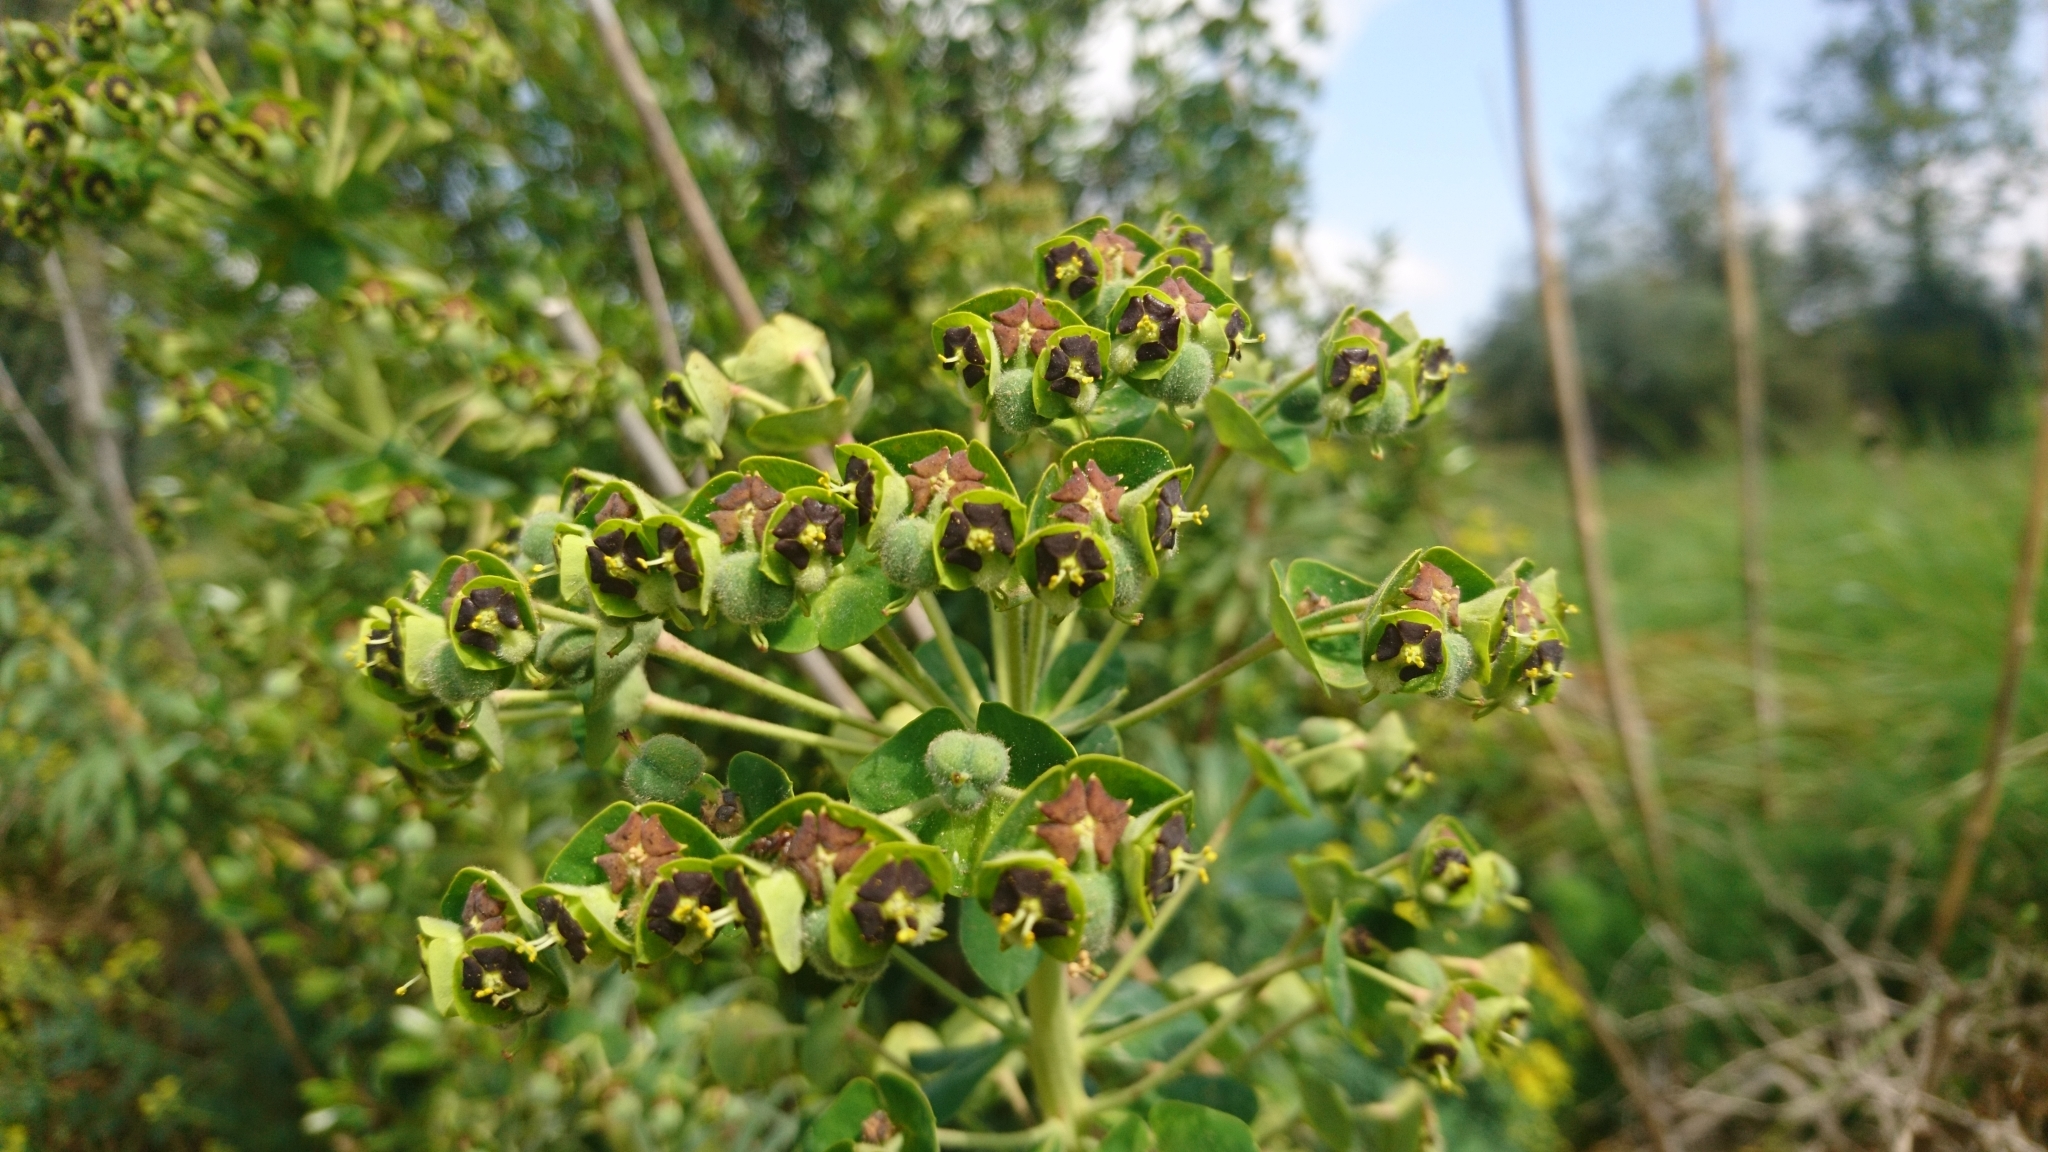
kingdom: Plantae
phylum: Tracheophyta
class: Magnoliopsida
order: Malpighiales
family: Euphorbiaceae
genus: Euphorbia
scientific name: Euphorbia characias
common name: Mediterranean spurge
